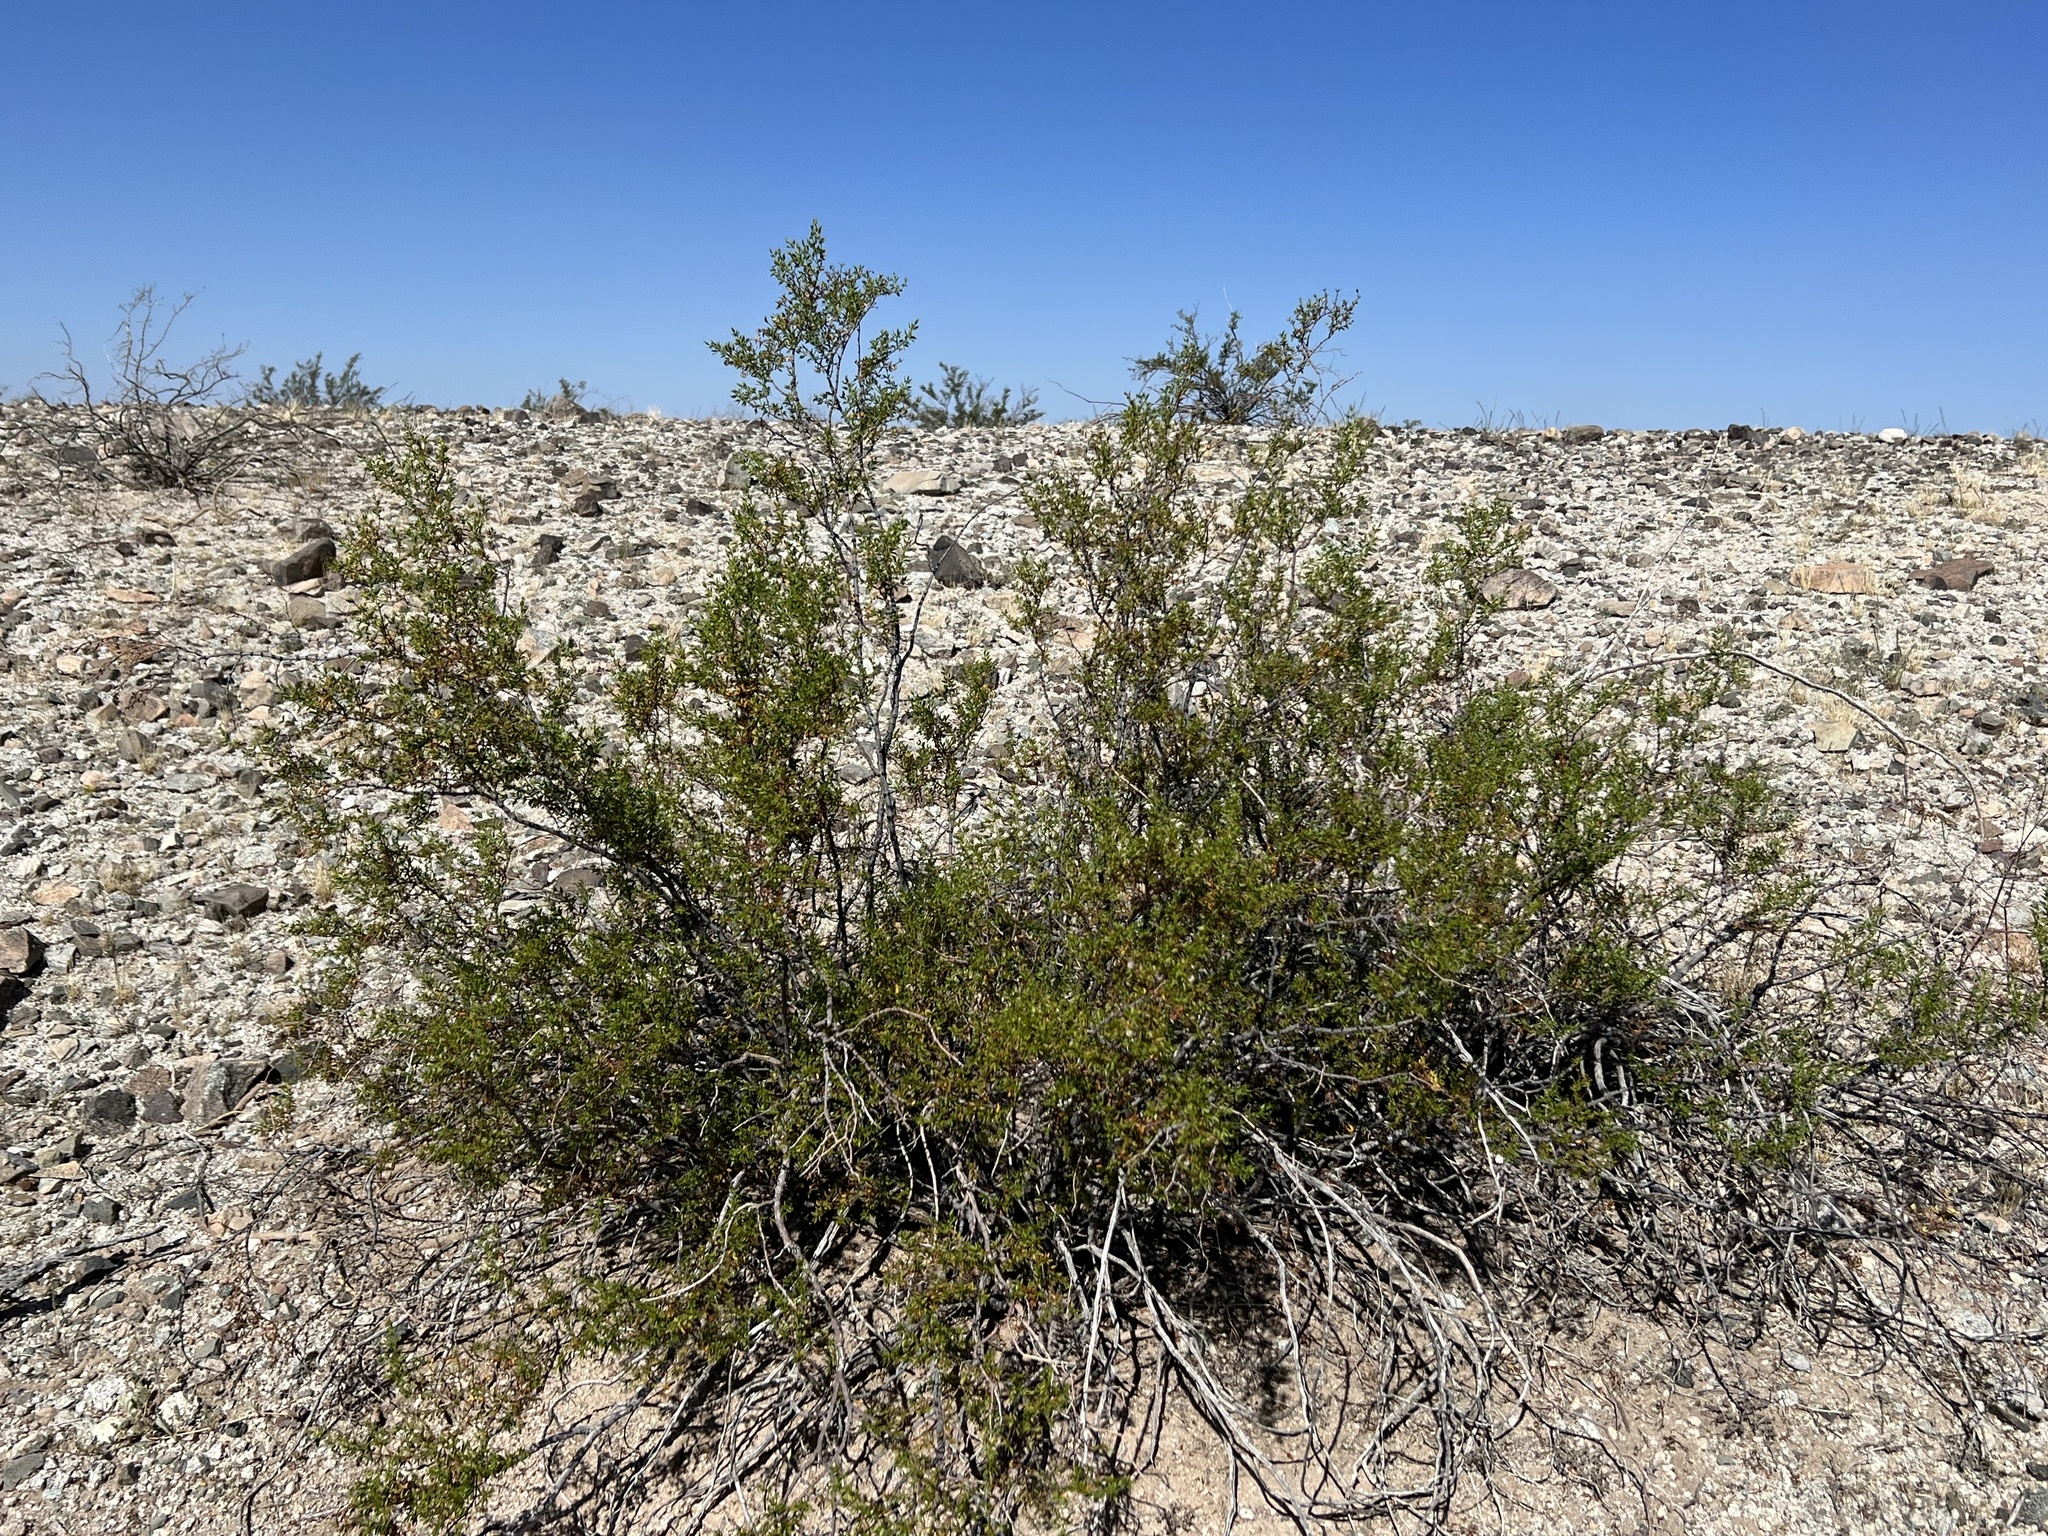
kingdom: Plantae
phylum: Tracheophyta
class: Magnoliopsida
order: Zygophyllales
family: Zygophyllaceae
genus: Larrea
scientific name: Larrea tridentata
